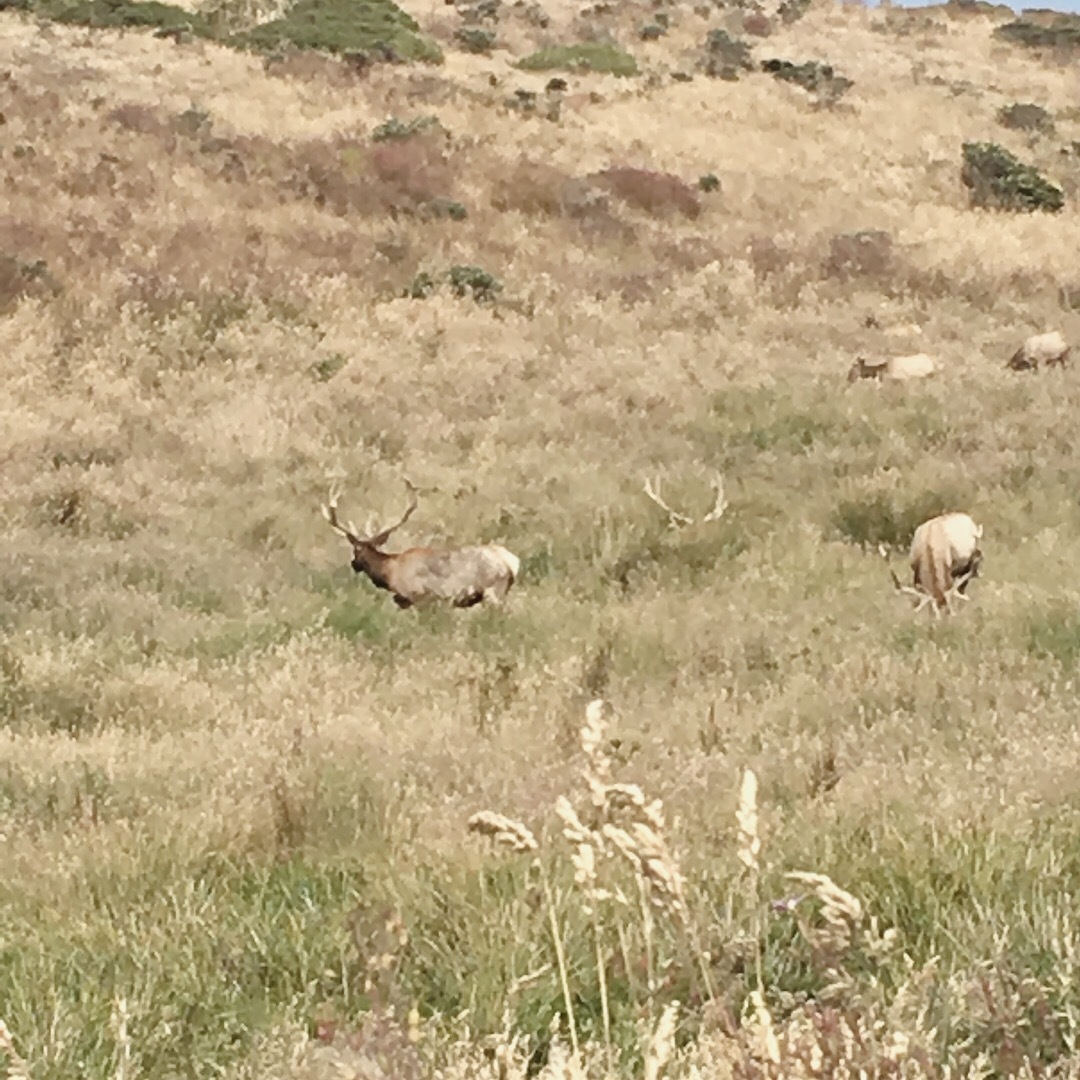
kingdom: Animalia
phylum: Chordata
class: Mammalia
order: Artiodactyla
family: Cervidae
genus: Cervus
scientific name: Cervus elaphus
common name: Red deer
